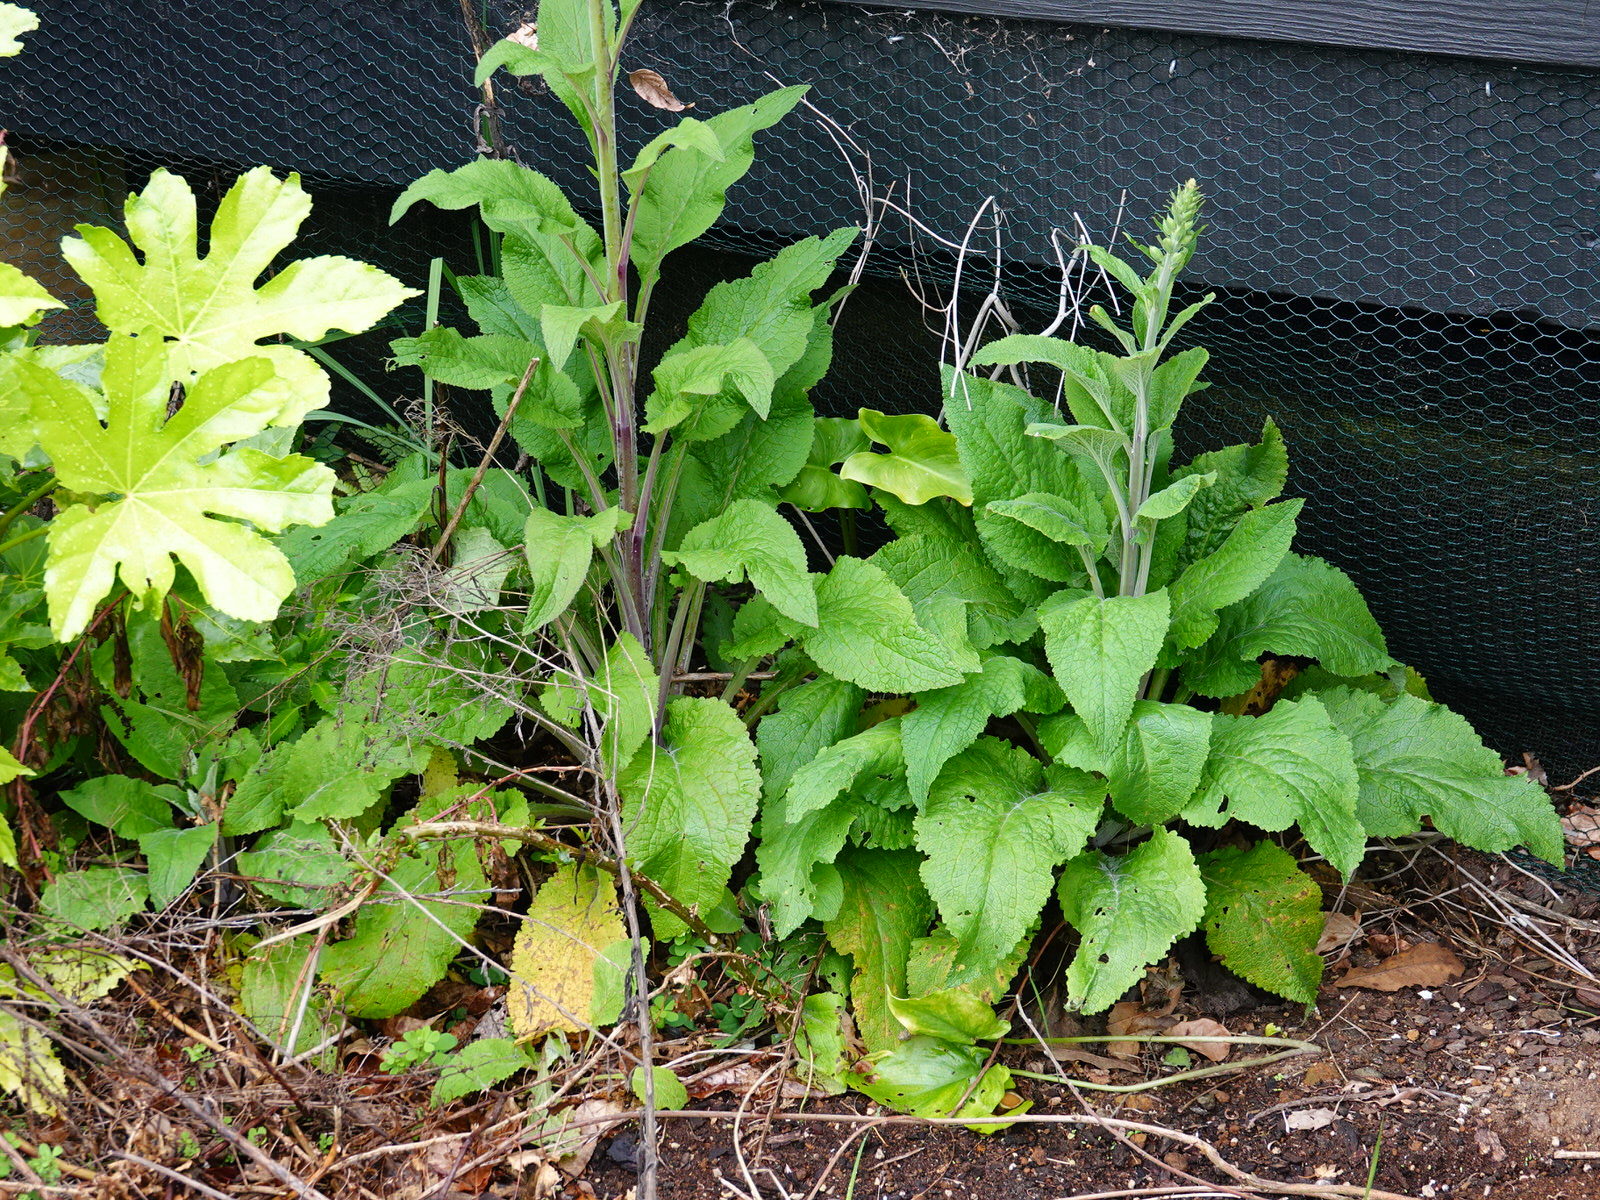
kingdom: Plantae
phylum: Tracheophyta
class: Magnoliopsida
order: Lamiales
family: Plantaginaceae
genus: Digitalis
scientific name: Digitalis purpurea
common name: Foxglove
